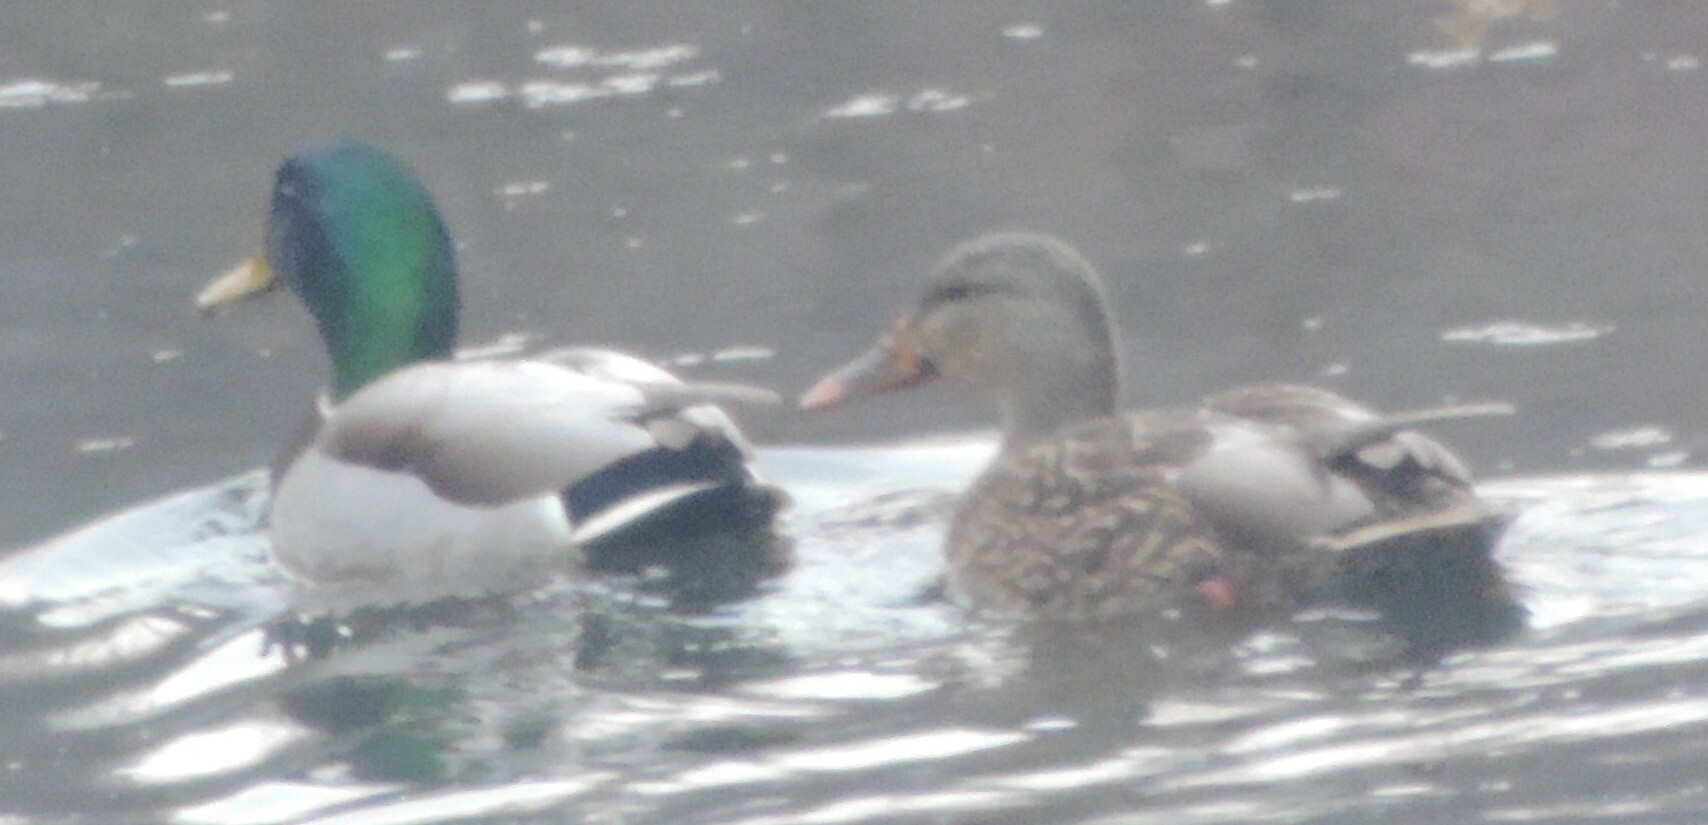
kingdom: Animalia
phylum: Chordata
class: Aves
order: Anseriformes
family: Anatidae
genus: Anas
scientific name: Anas platyrhynchos
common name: Mallard
